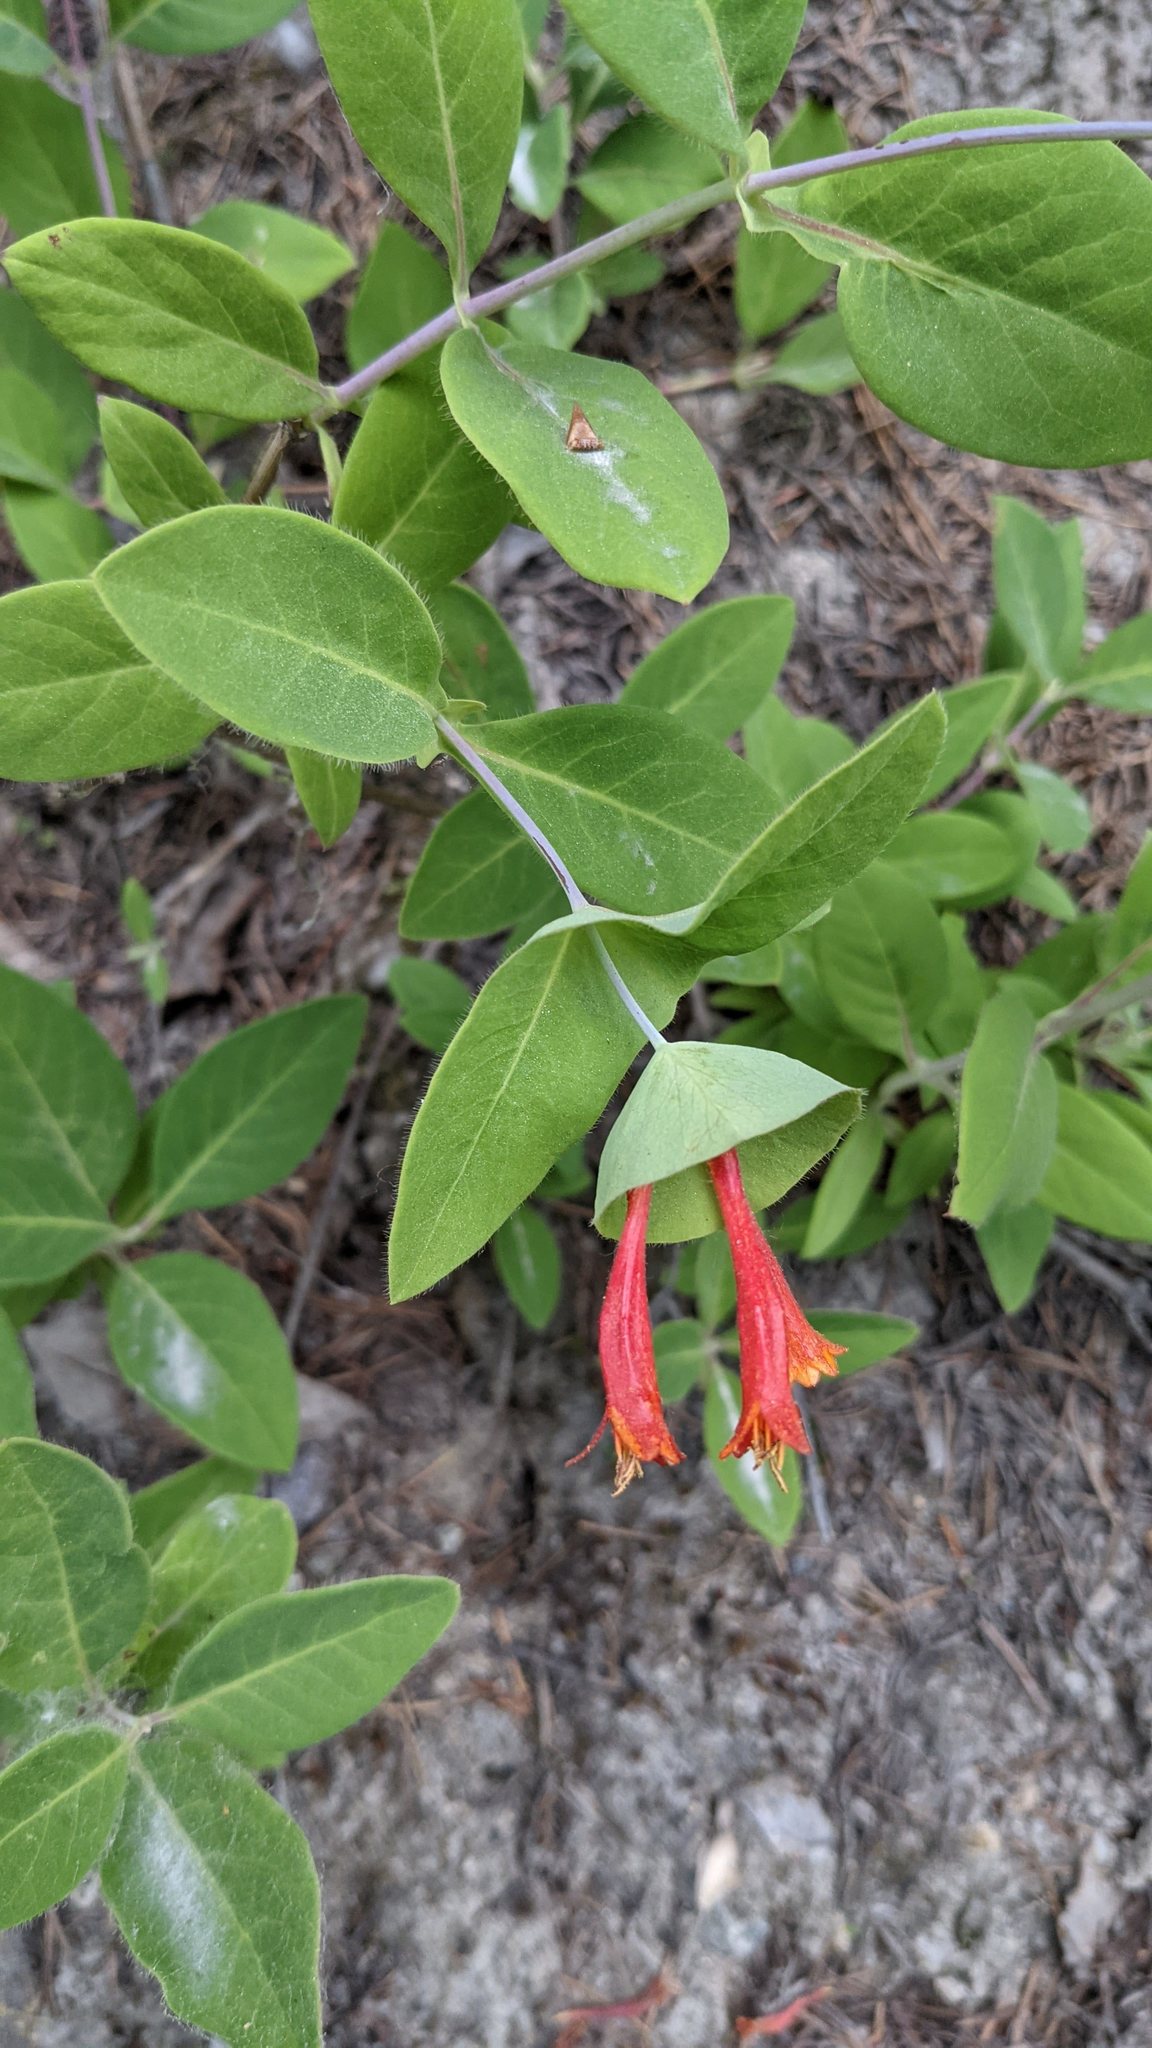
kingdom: Plantae
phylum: Tracheophyta
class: Magnoliopsida
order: Dipsacales
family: Caprifoliaceae
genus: Lonicera
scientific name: Lonicera ciliosa
